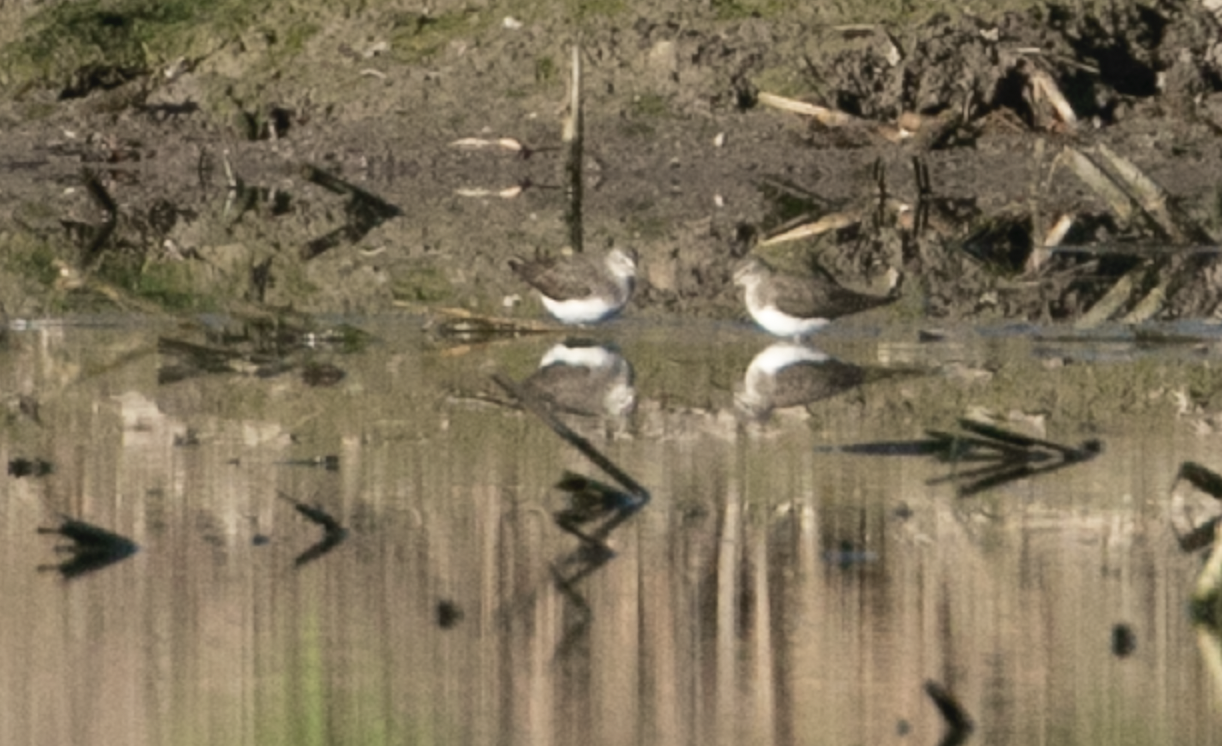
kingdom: Animalia
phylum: Chordata
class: Aves
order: Charadriiformes
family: Scolopacidae
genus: Tringa
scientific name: Tringa ochropus
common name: Green sandpiper
